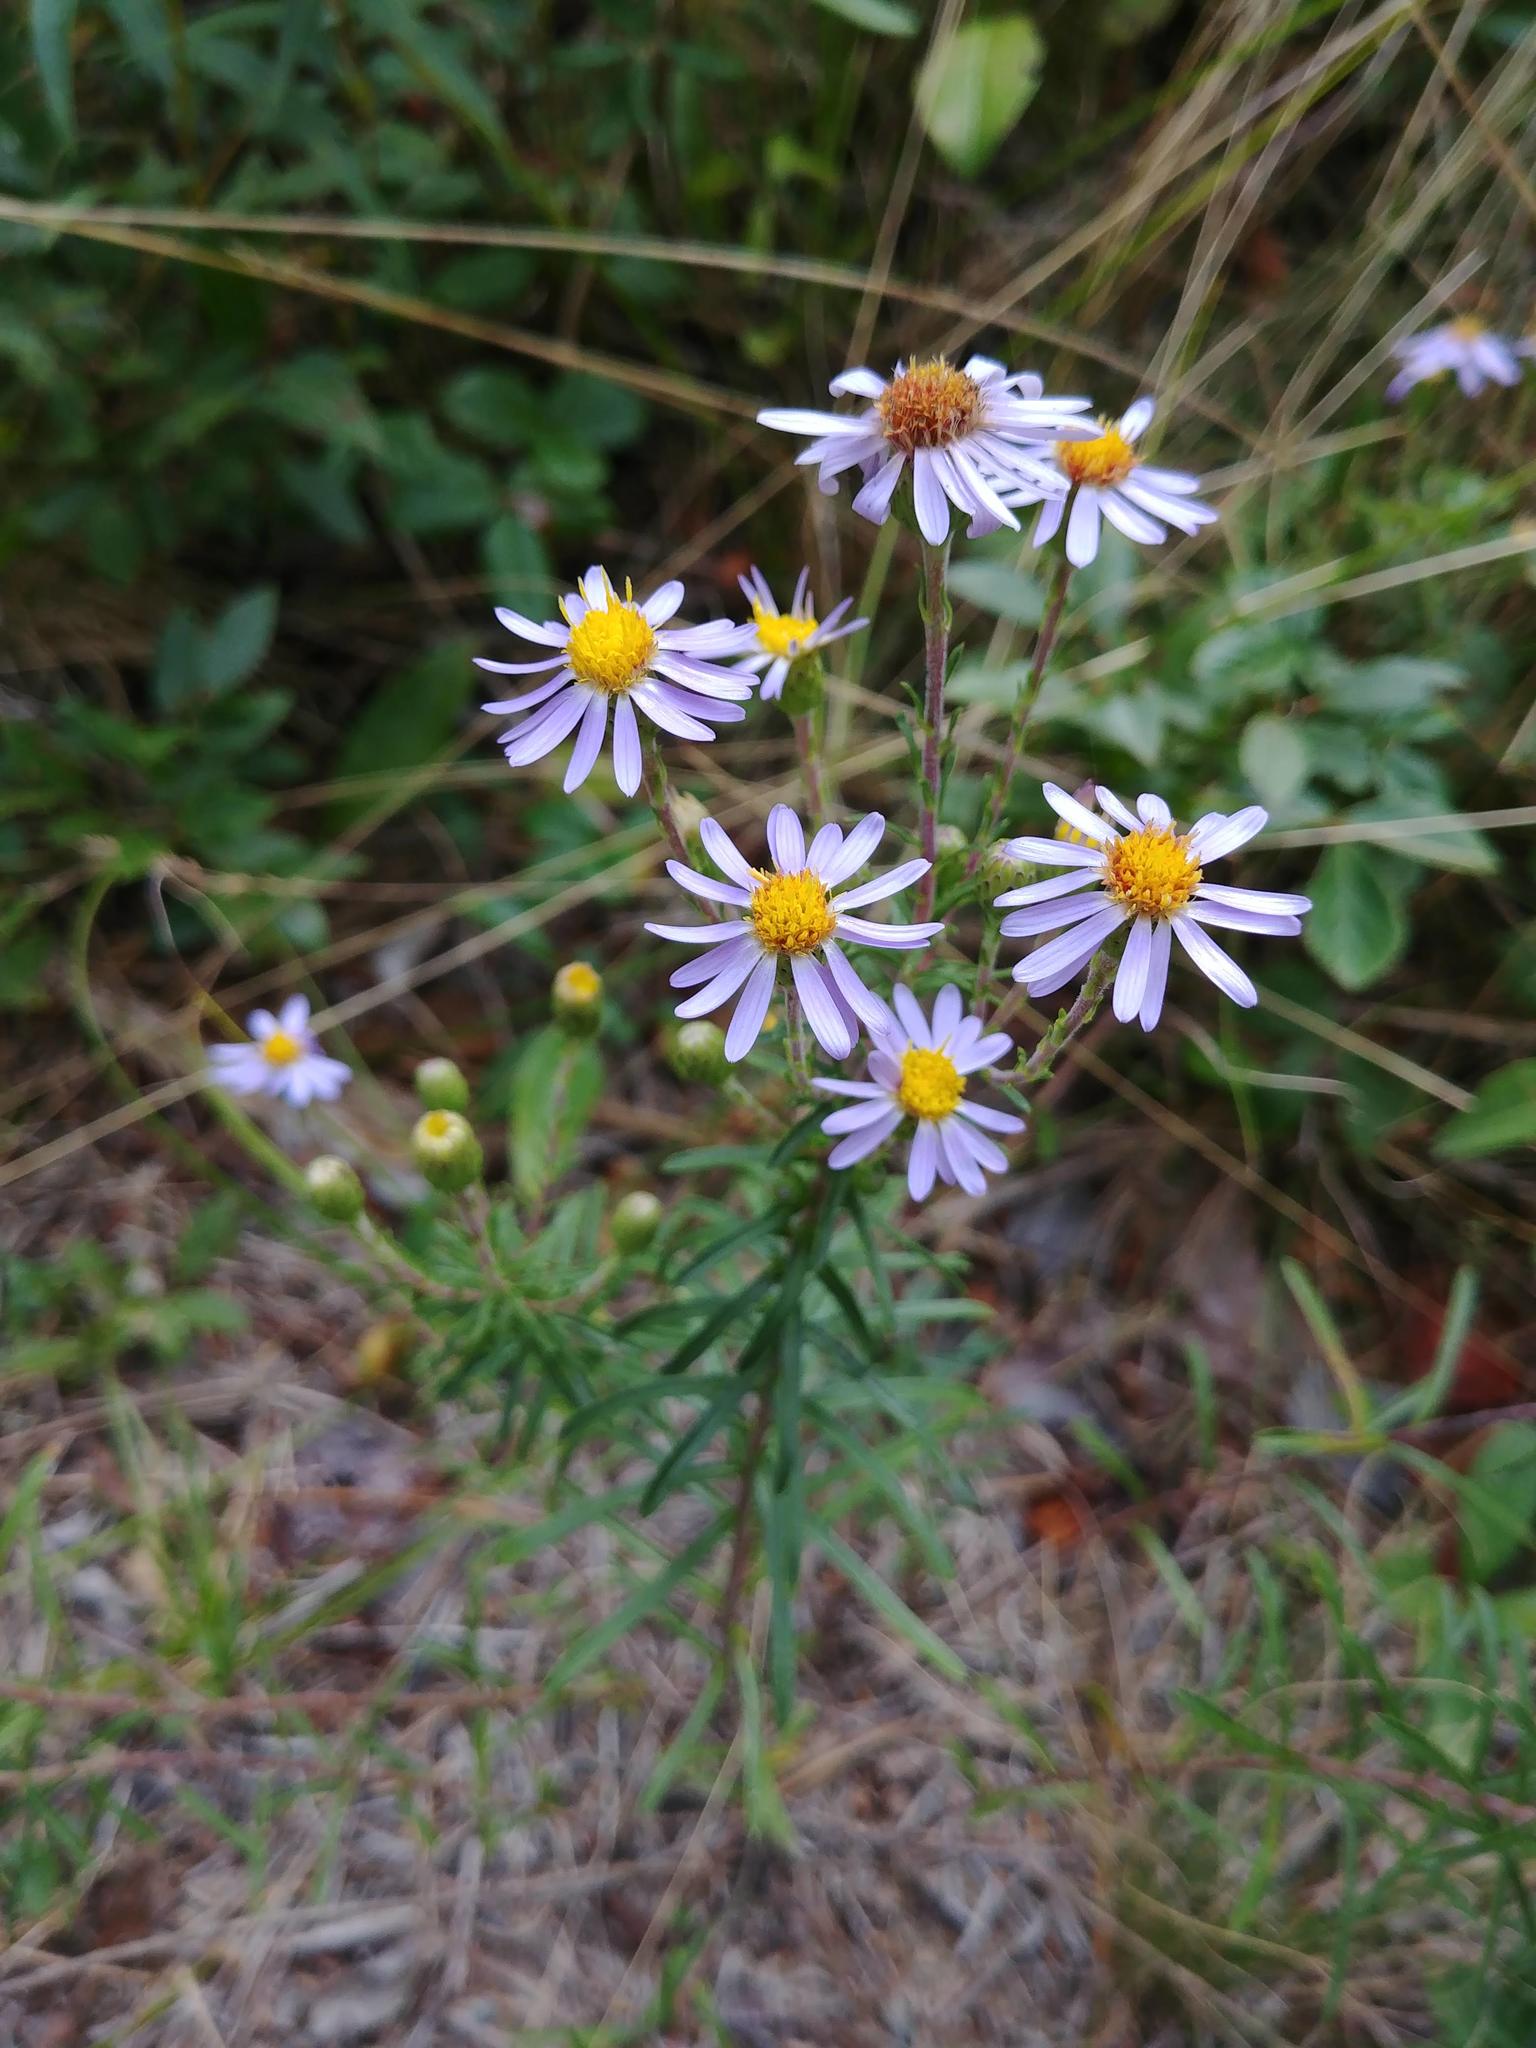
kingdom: Plantae
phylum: Tracheophyta
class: Magnoliopsida
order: Asterales
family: Asteraceae
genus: Ionactis
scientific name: Ionactis linariifolia
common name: Flax-leaf aster
